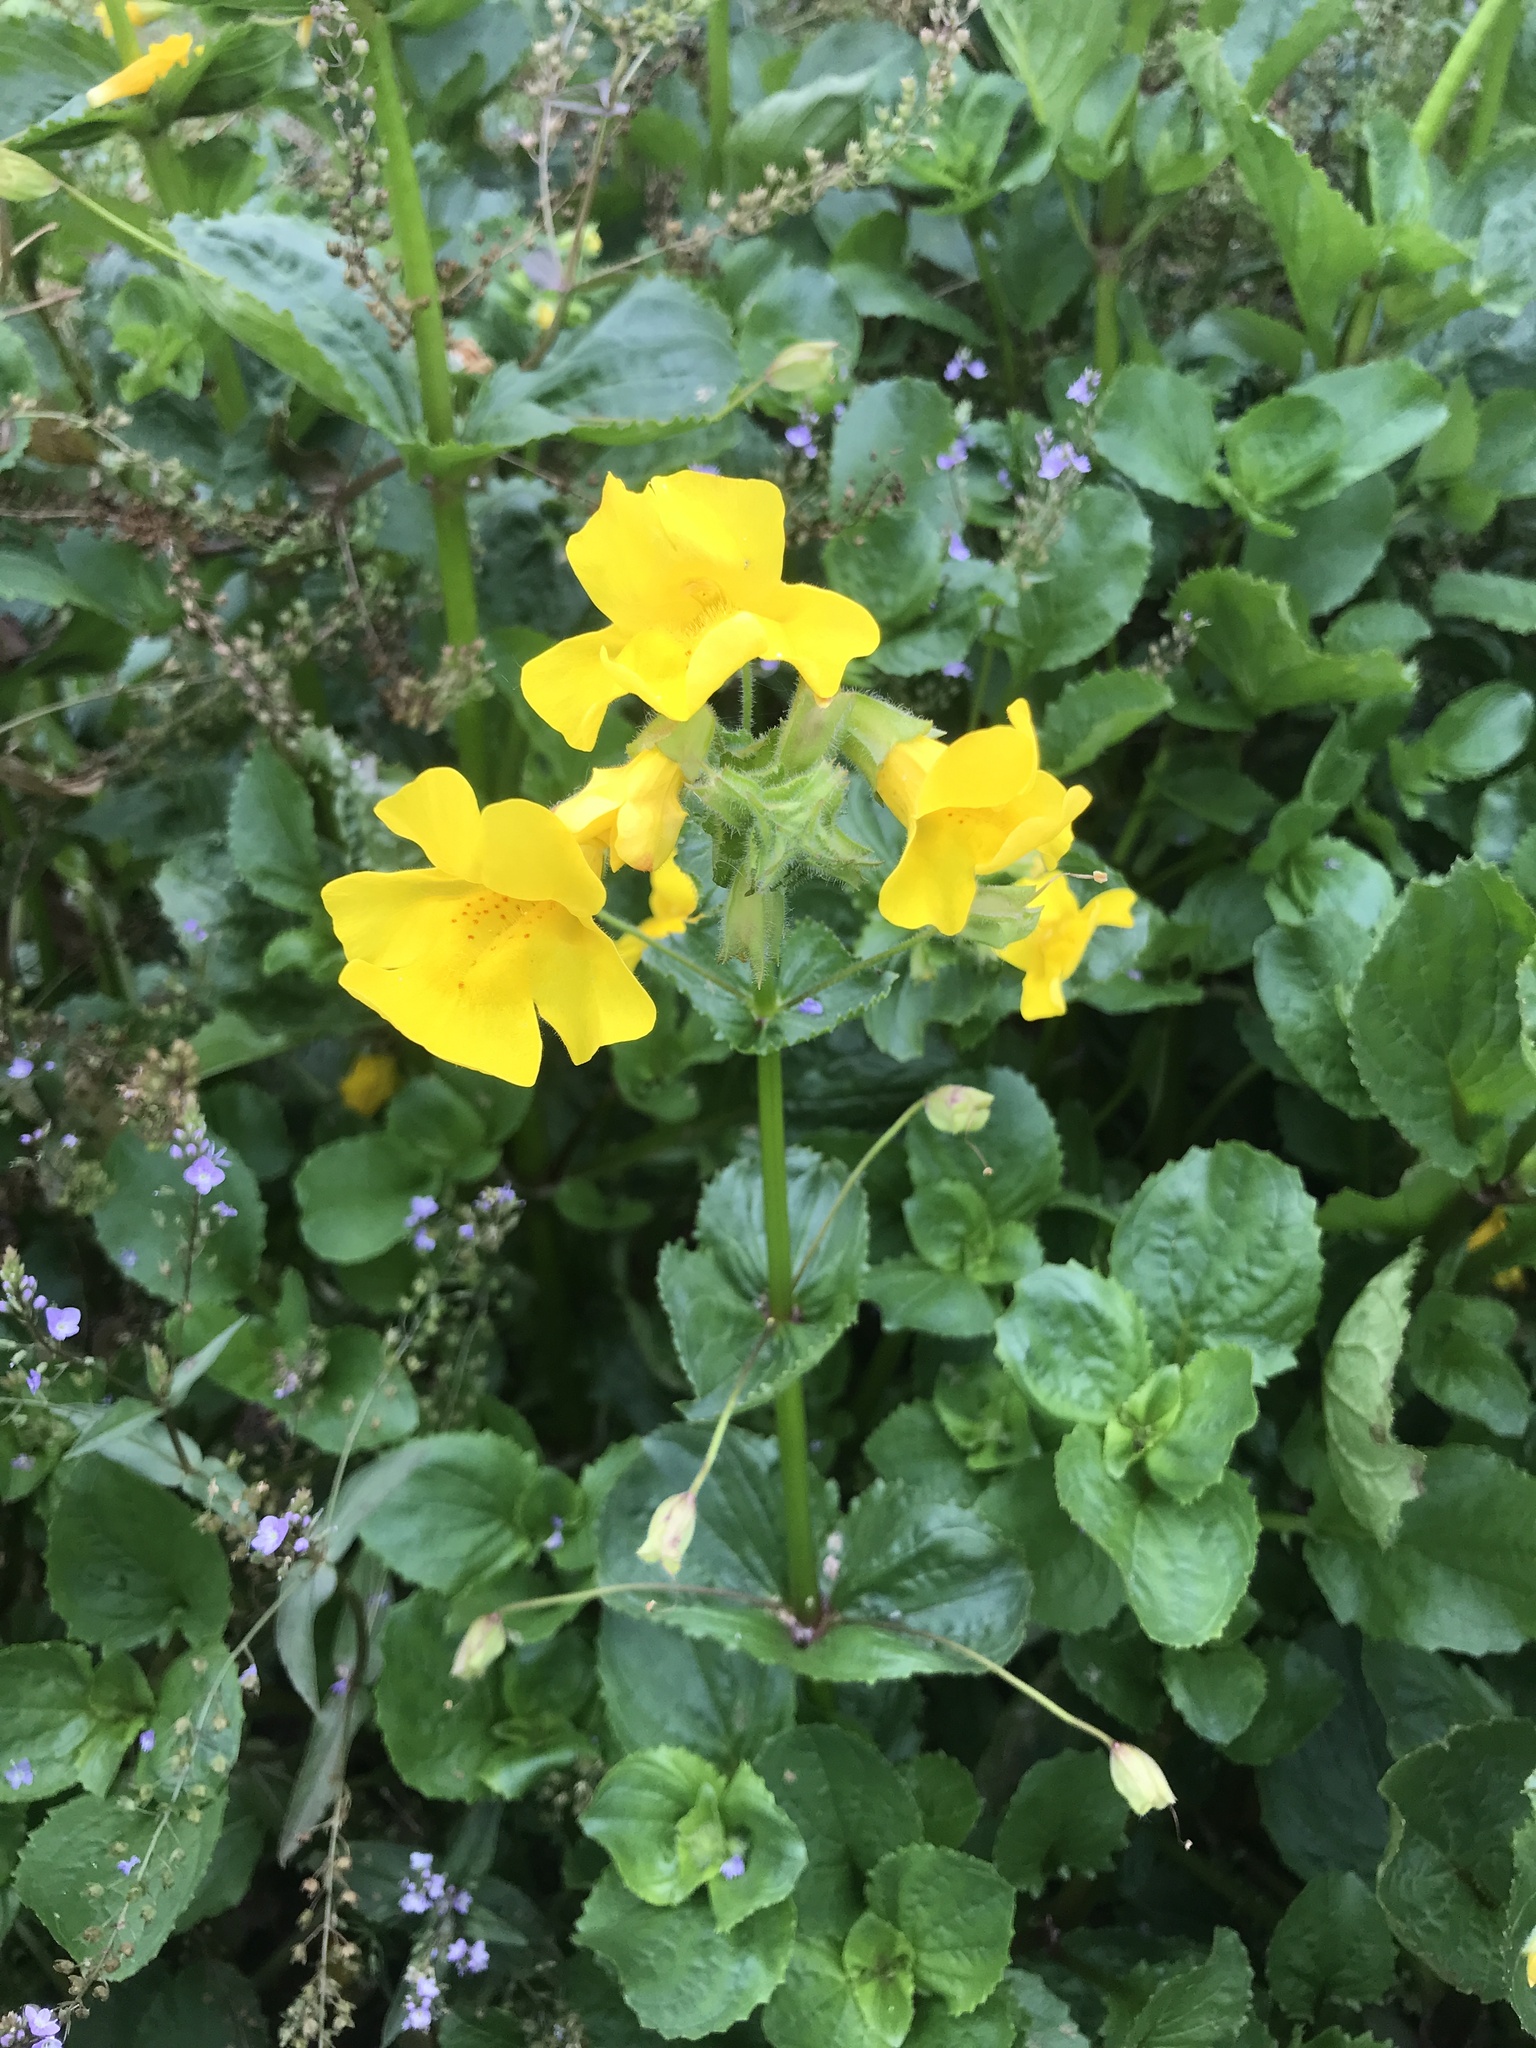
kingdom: Plantae
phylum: Tracheophyta
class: Magnoliopsida
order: Lamiales
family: Phrymaceae
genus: Erythranthe
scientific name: Erythranthe guttata
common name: Monkeyflower
